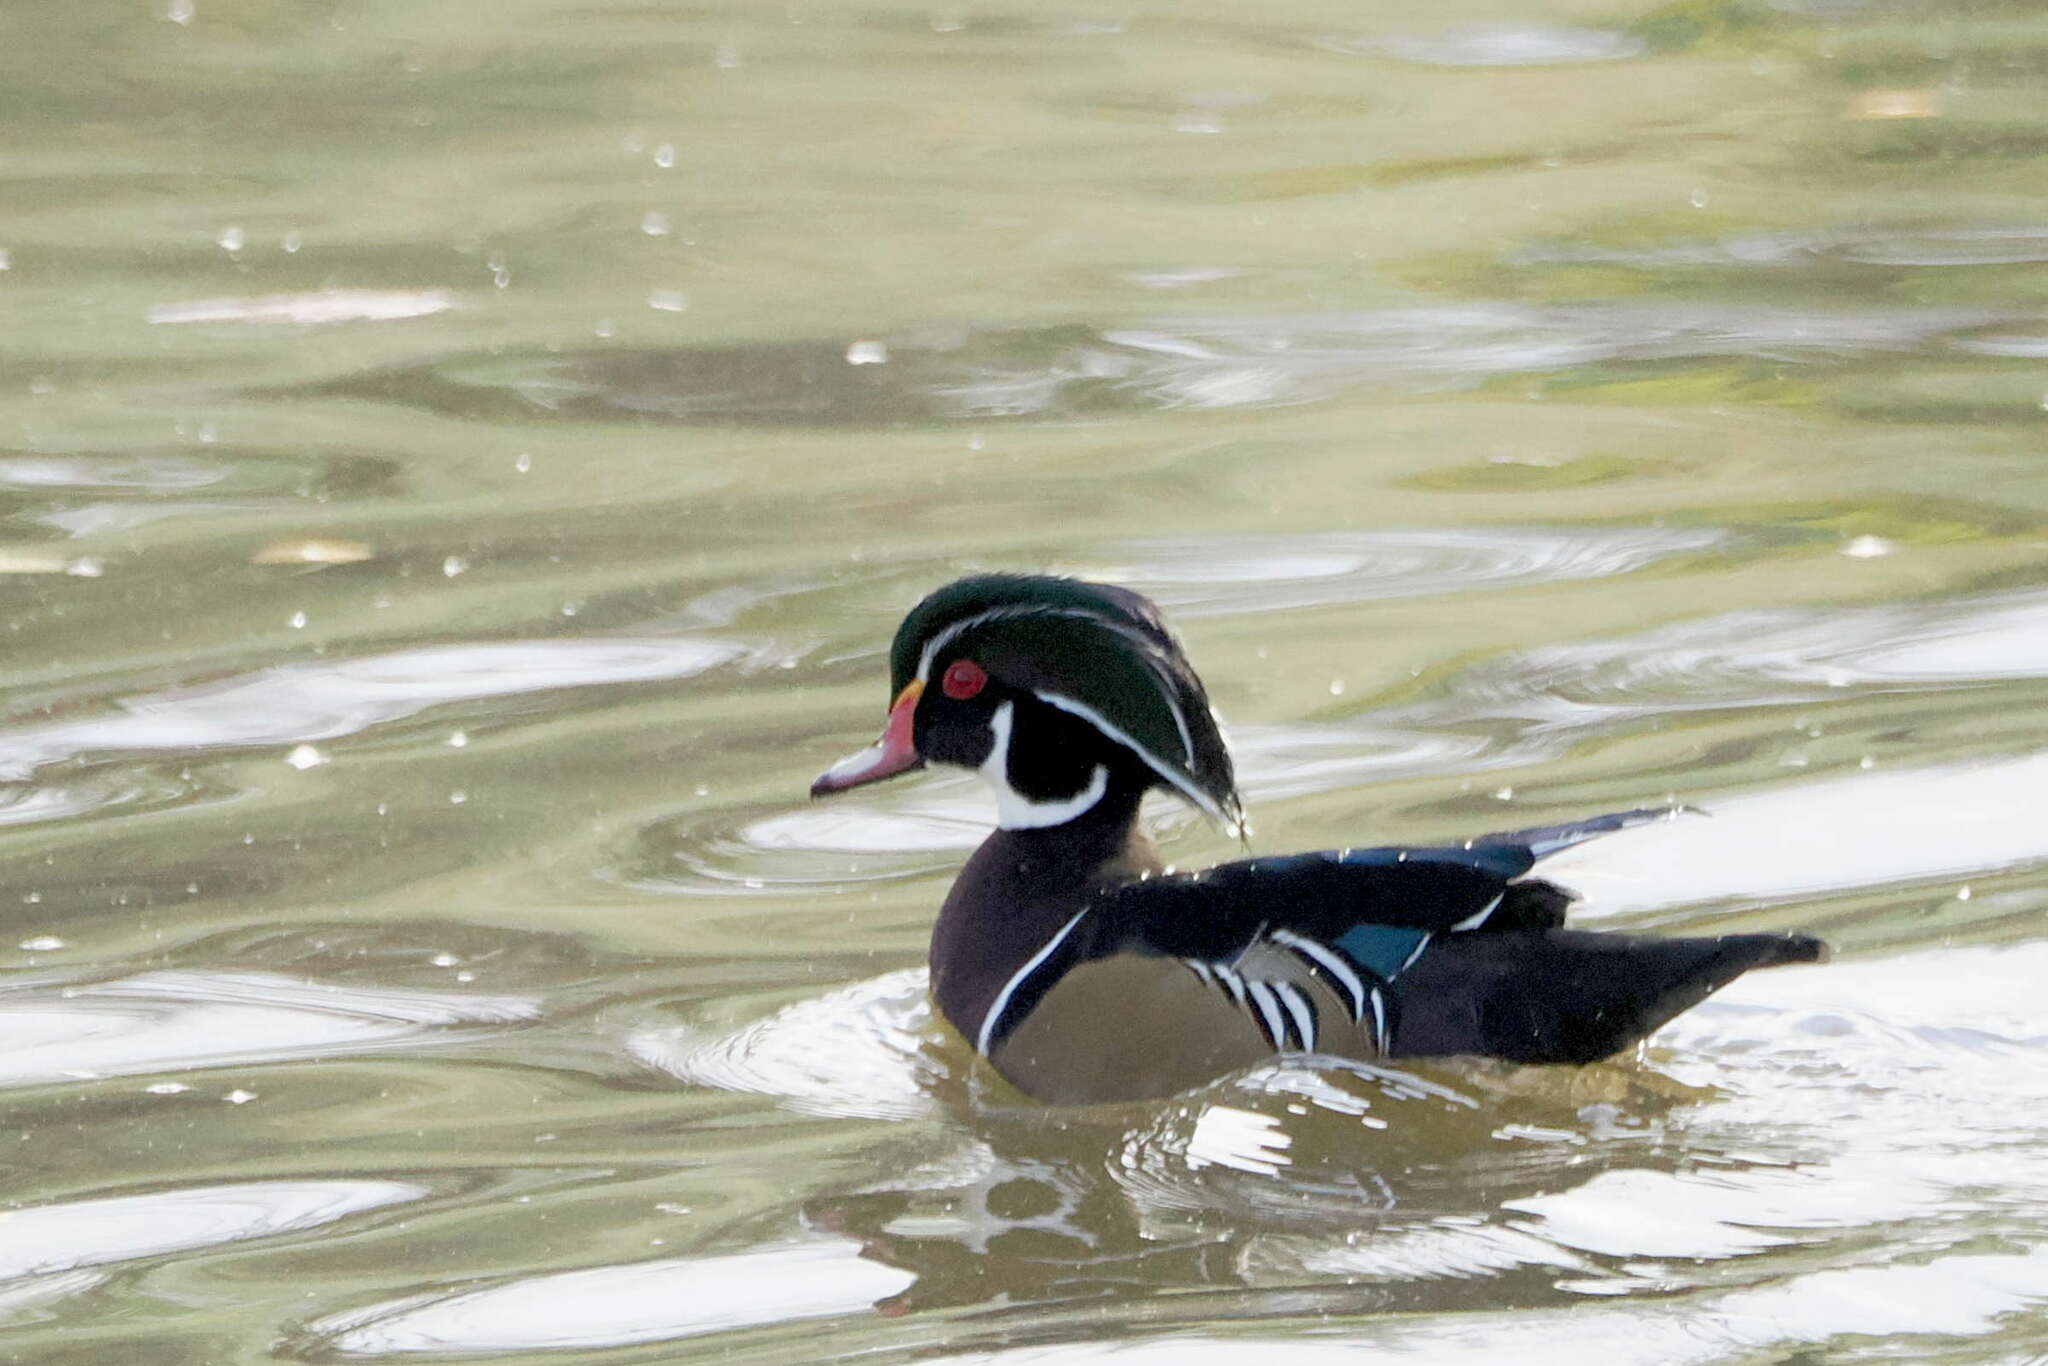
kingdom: Animalia
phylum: Chordata
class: Aves
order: Anseriformes
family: Anatidae
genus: Aix
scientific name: Aix sponsa
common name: Wood duck
